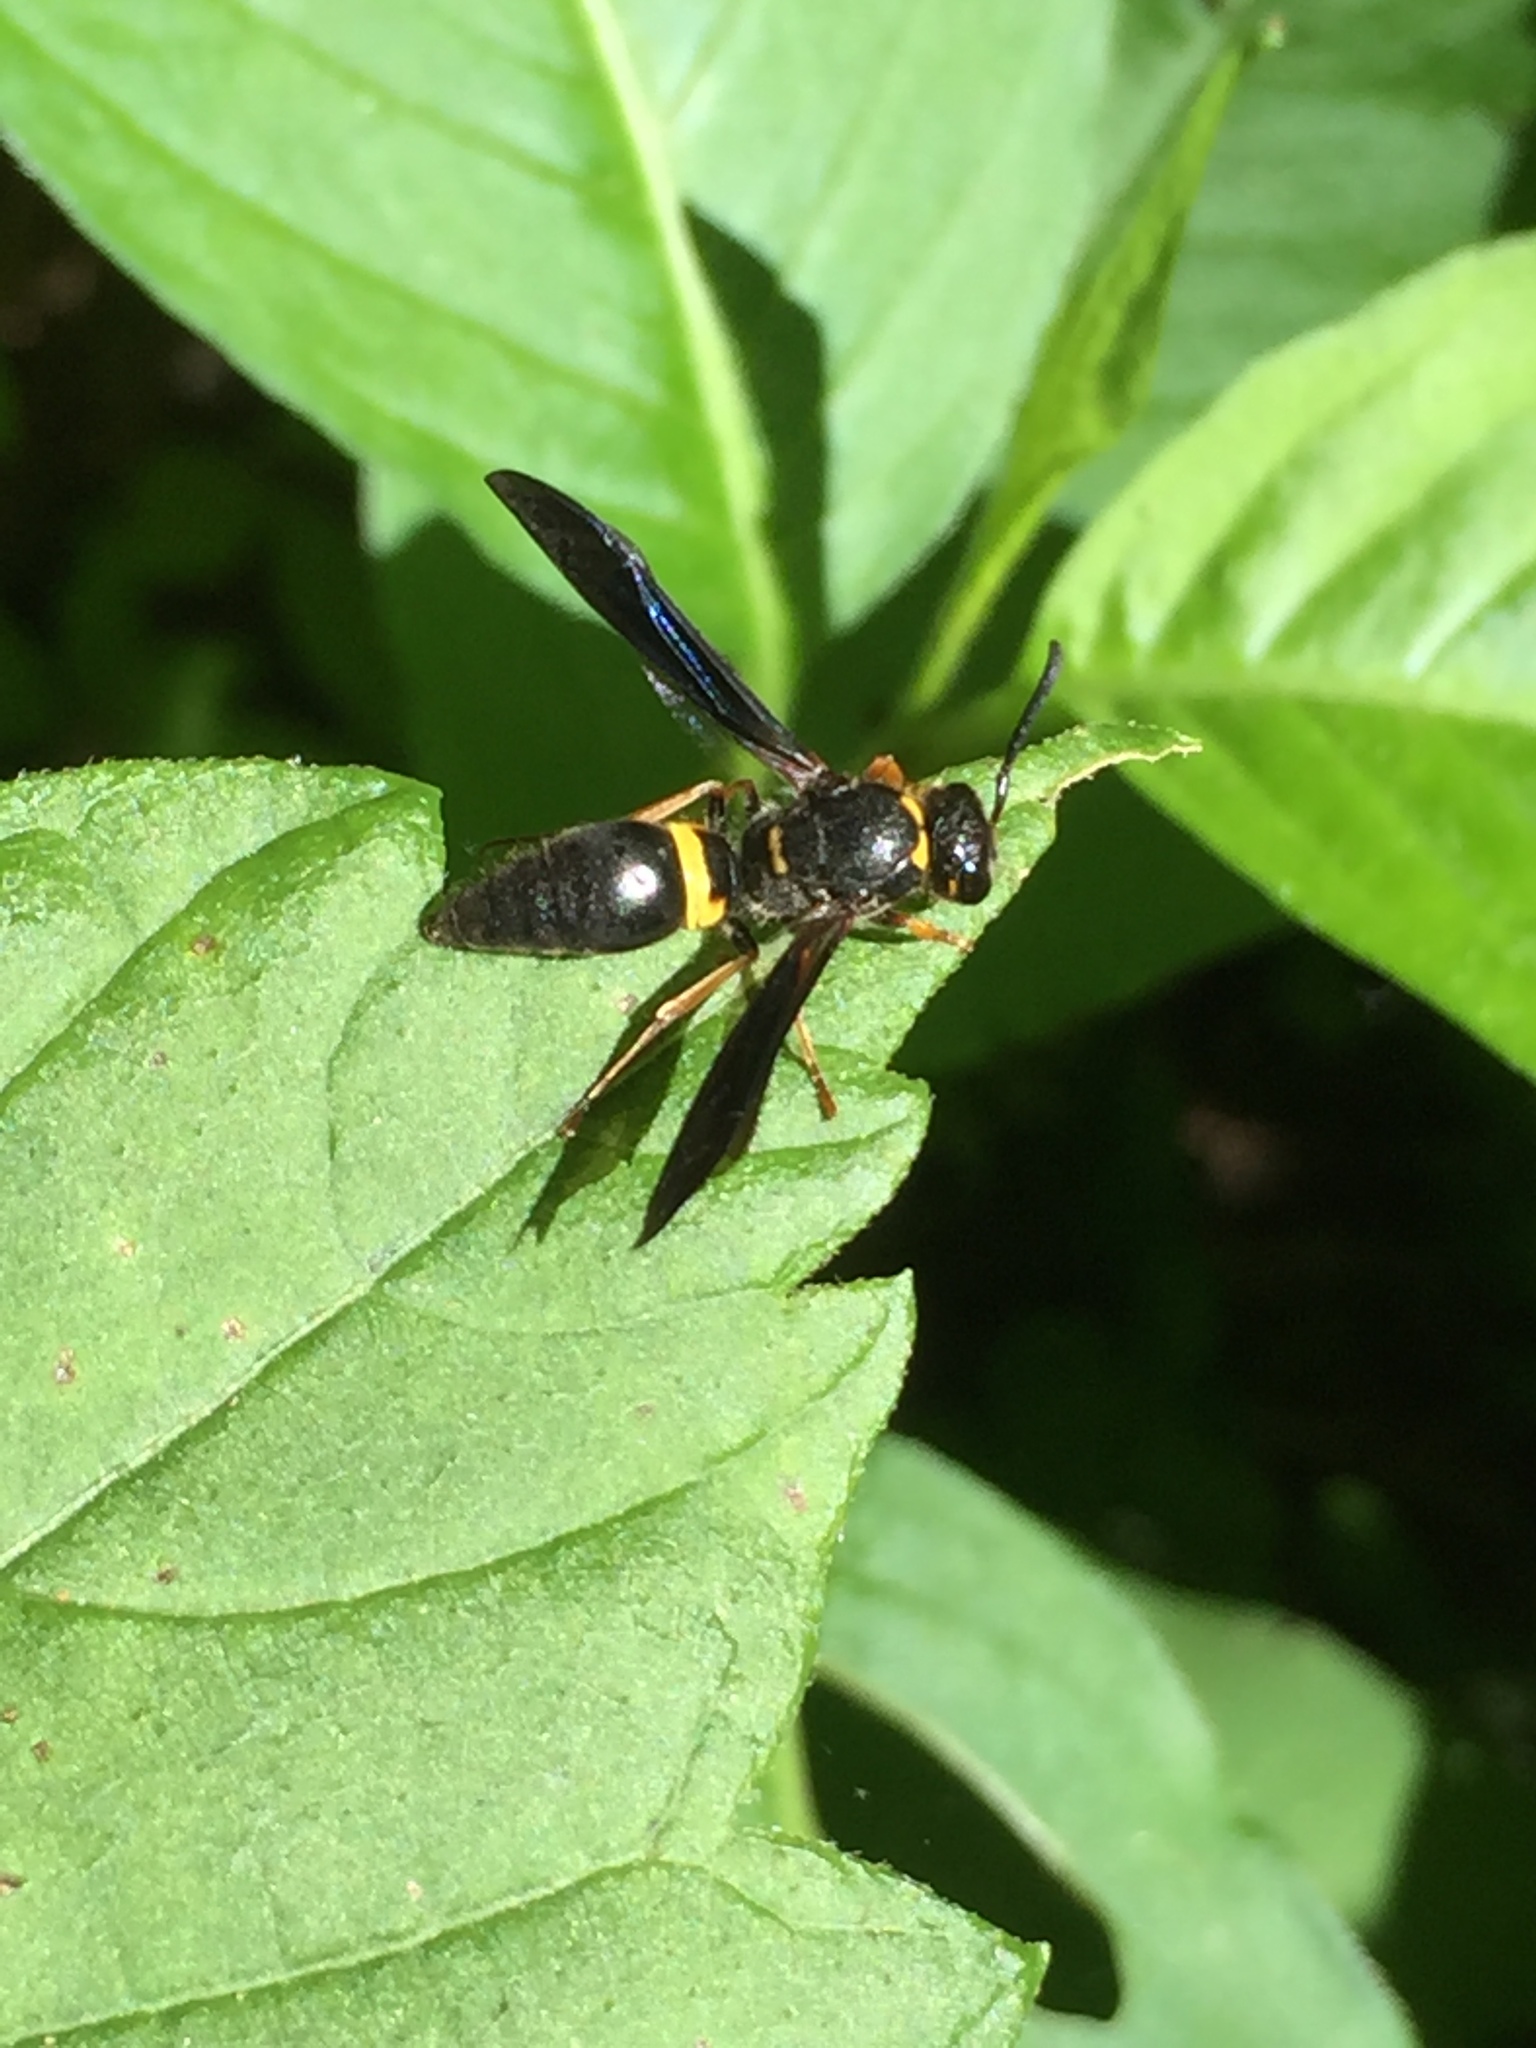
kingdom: Animalia
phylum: Arthropoda
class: Insecta
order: Hymenoptera
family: Vespidae
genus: Ancistrocerus
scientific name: Ancistrocerus unifasciatus
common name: One-banded mason wasp
